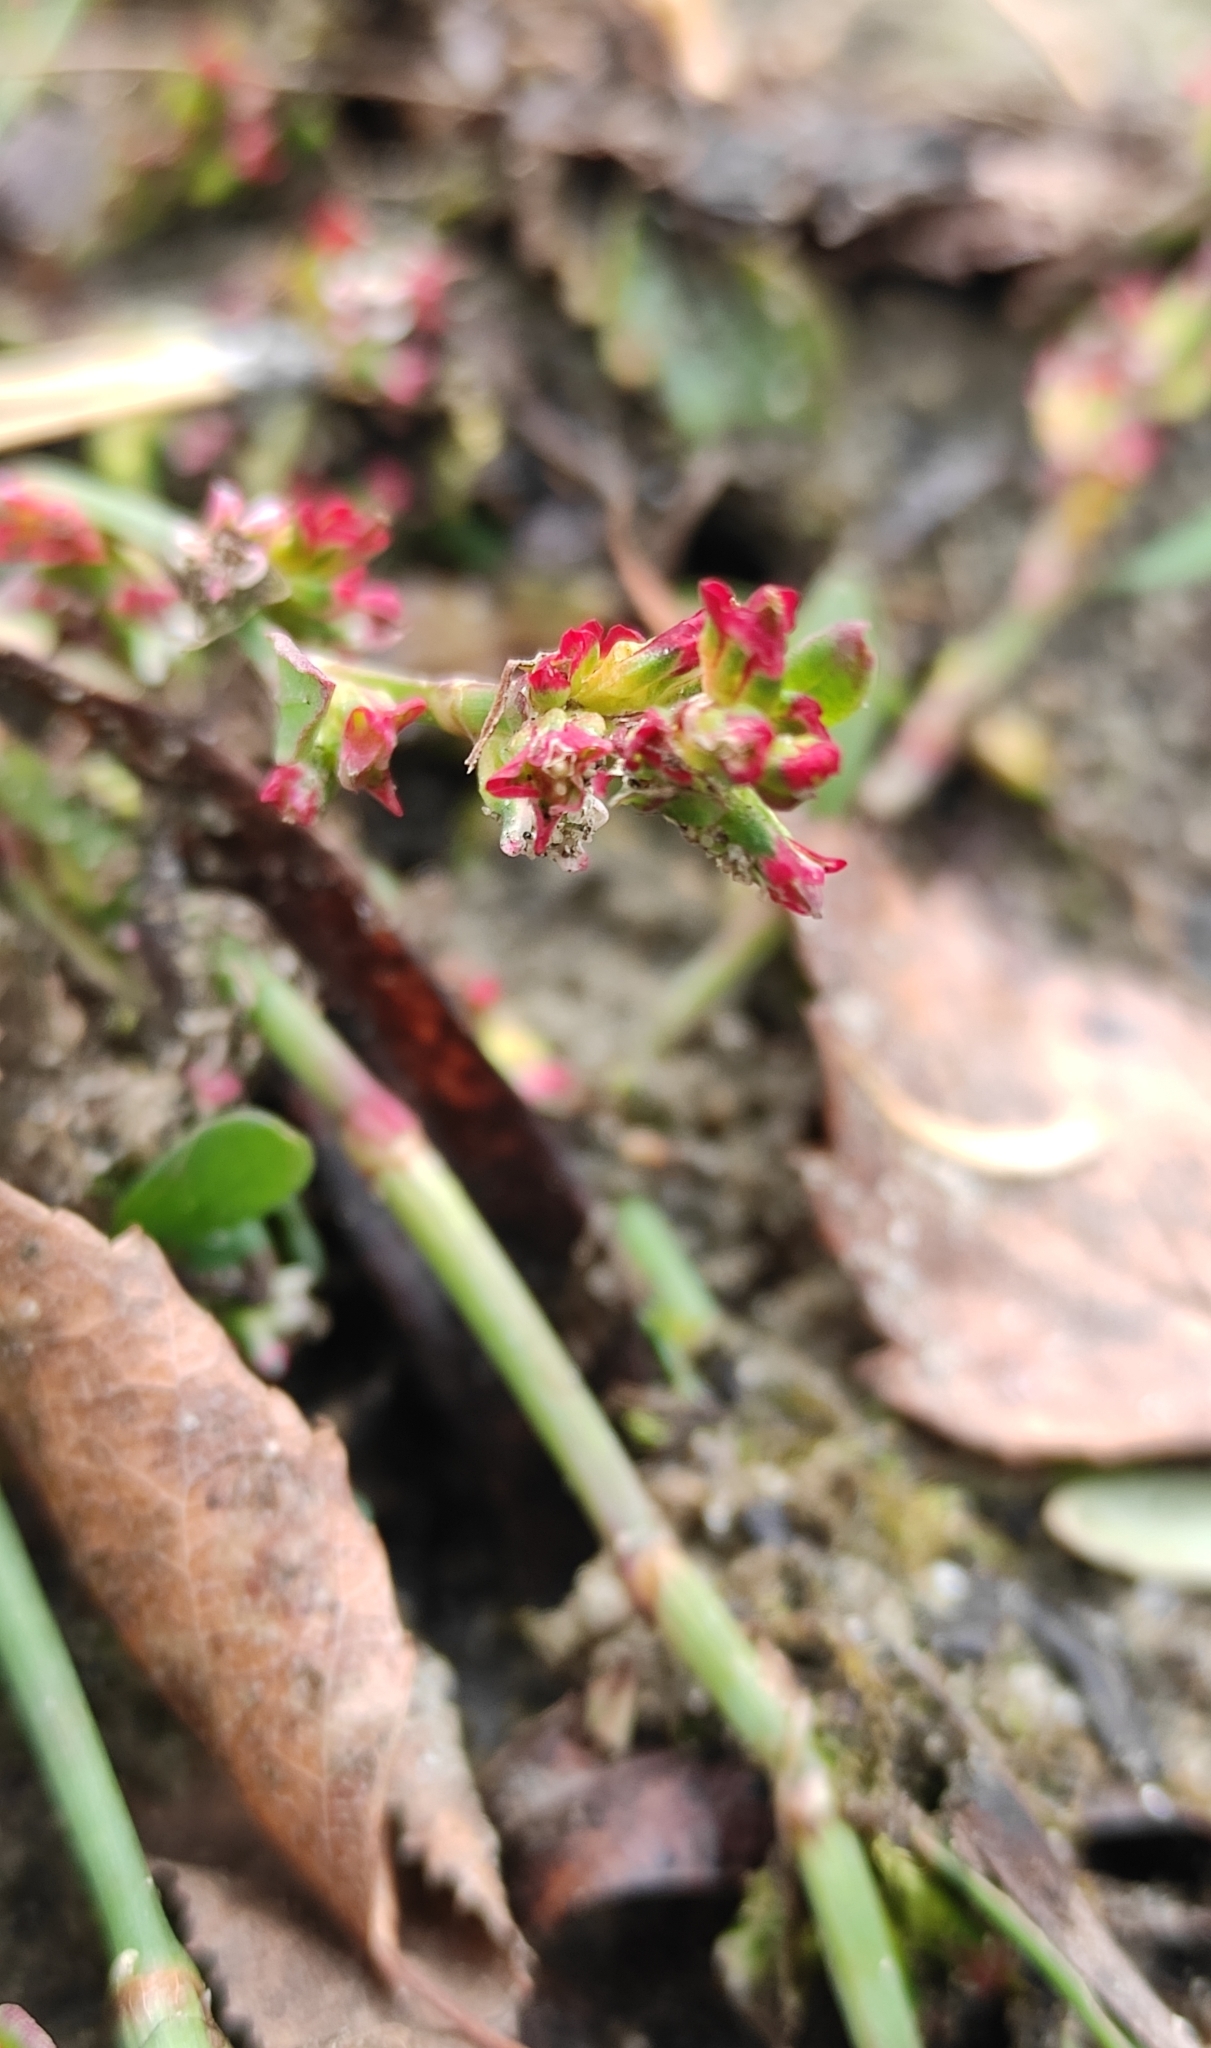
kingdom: Plantae
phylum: Tracheophyta
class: Magnoliopsida
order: Caryophyllales
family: Polygonaceae
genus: Polygonum
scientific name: Polygonum aviculare
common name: Prostrate knotweed
